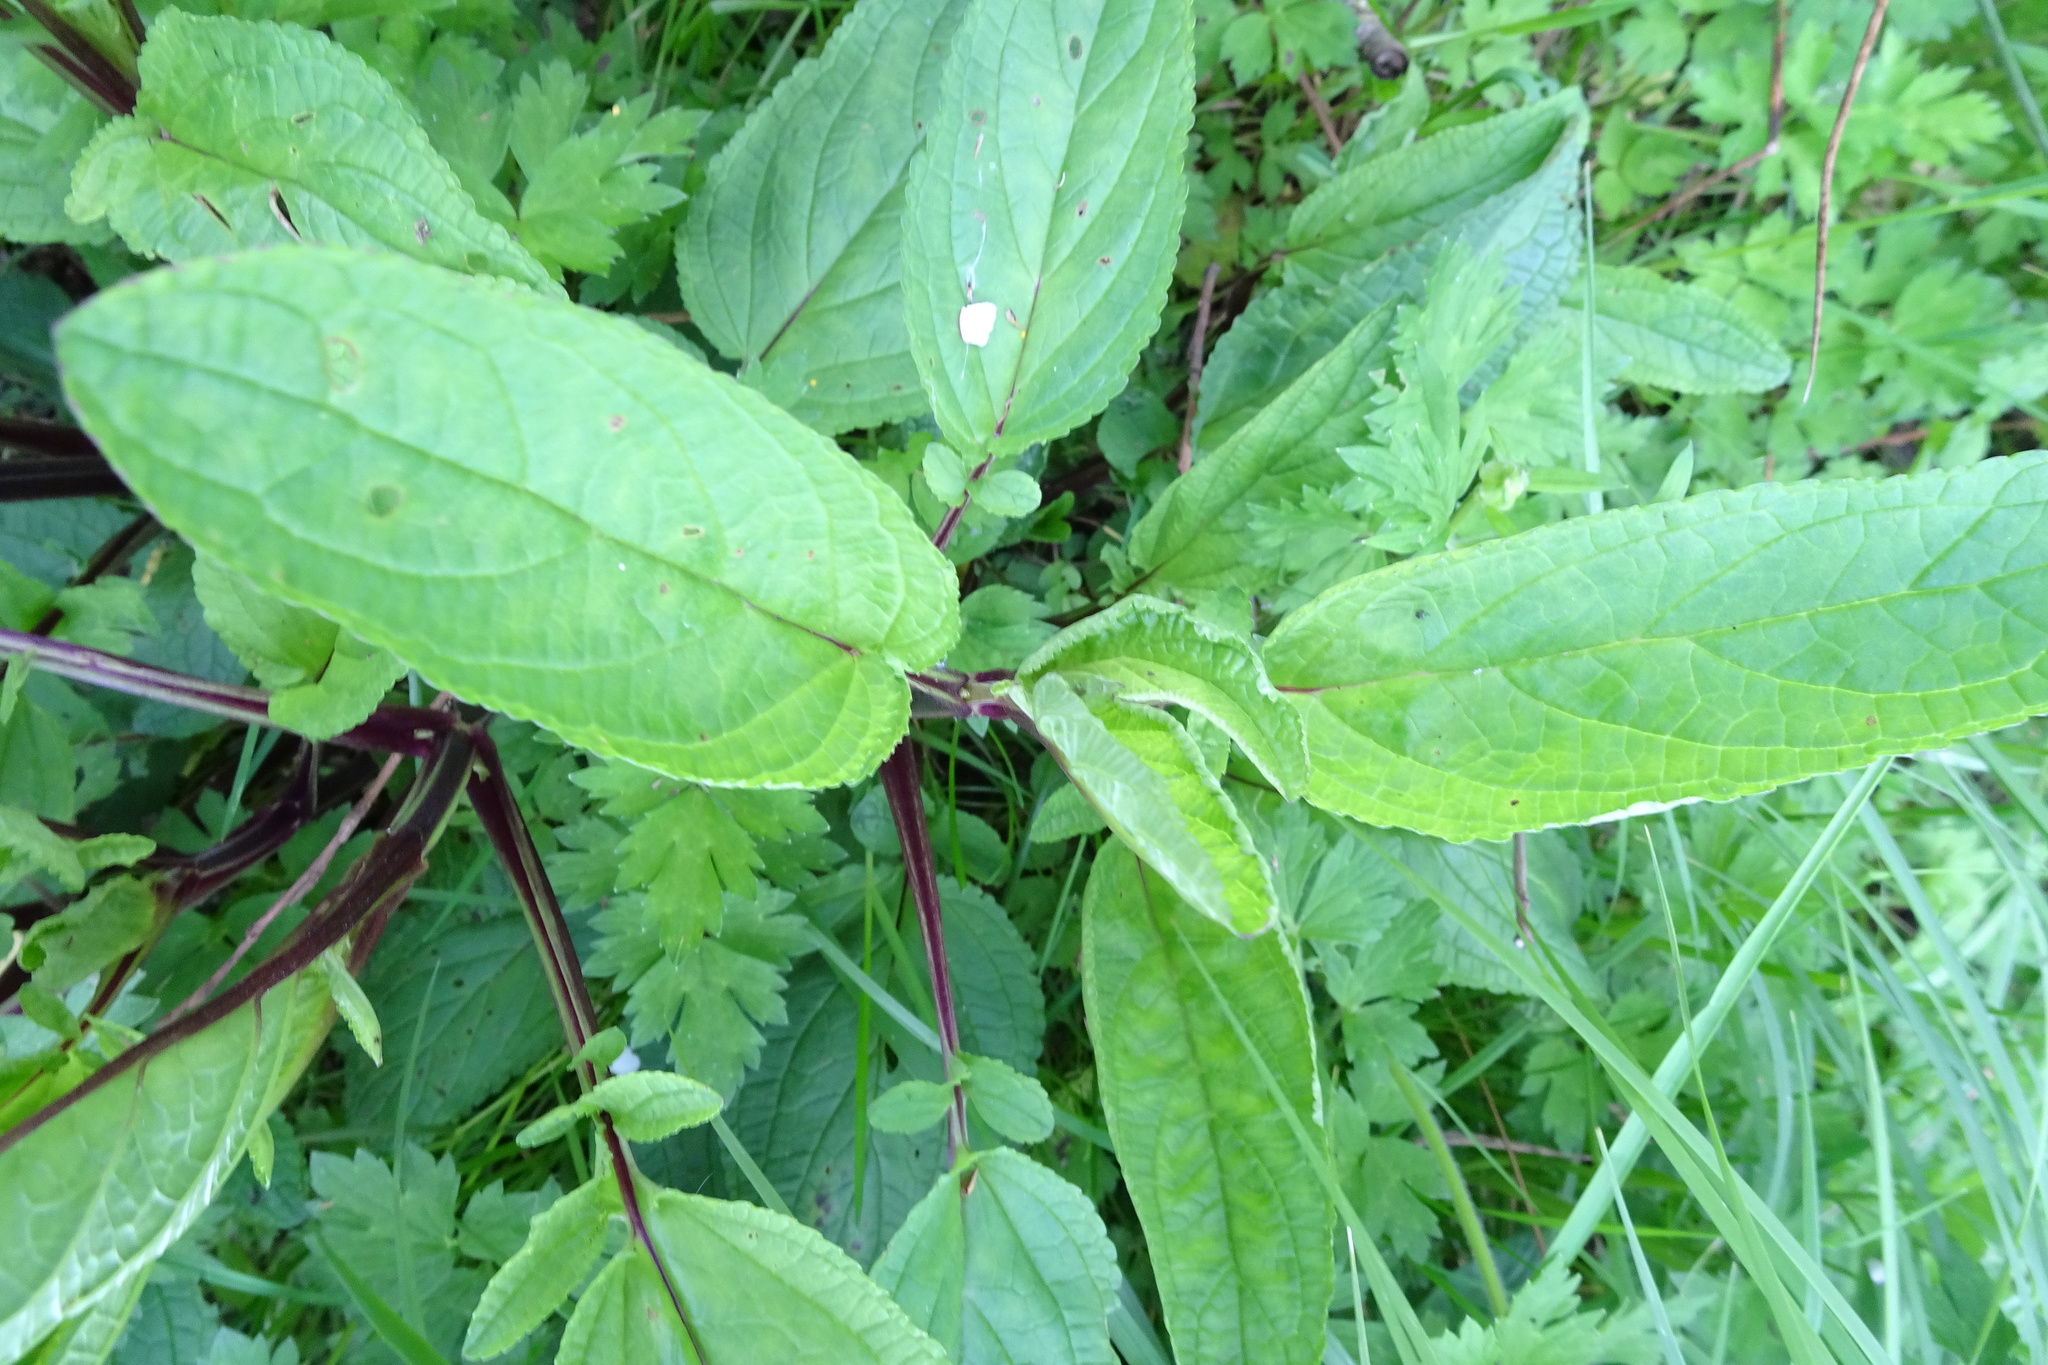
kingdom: Plantae
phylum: Tracheophyta
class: Magnoliopsida
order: Lamiales
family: Scrophulariaceae
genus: Scrophularia
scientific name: Scrophularia auriculata
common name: Water betony
